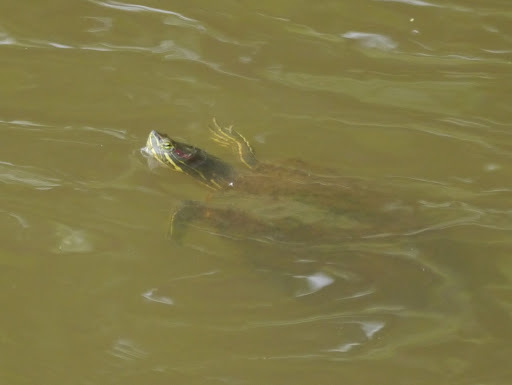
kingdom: Animalia
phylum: Chordata
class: Testudines
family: Emydidae
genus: Trachemys
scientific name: Trachemys scripta
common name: Slider
